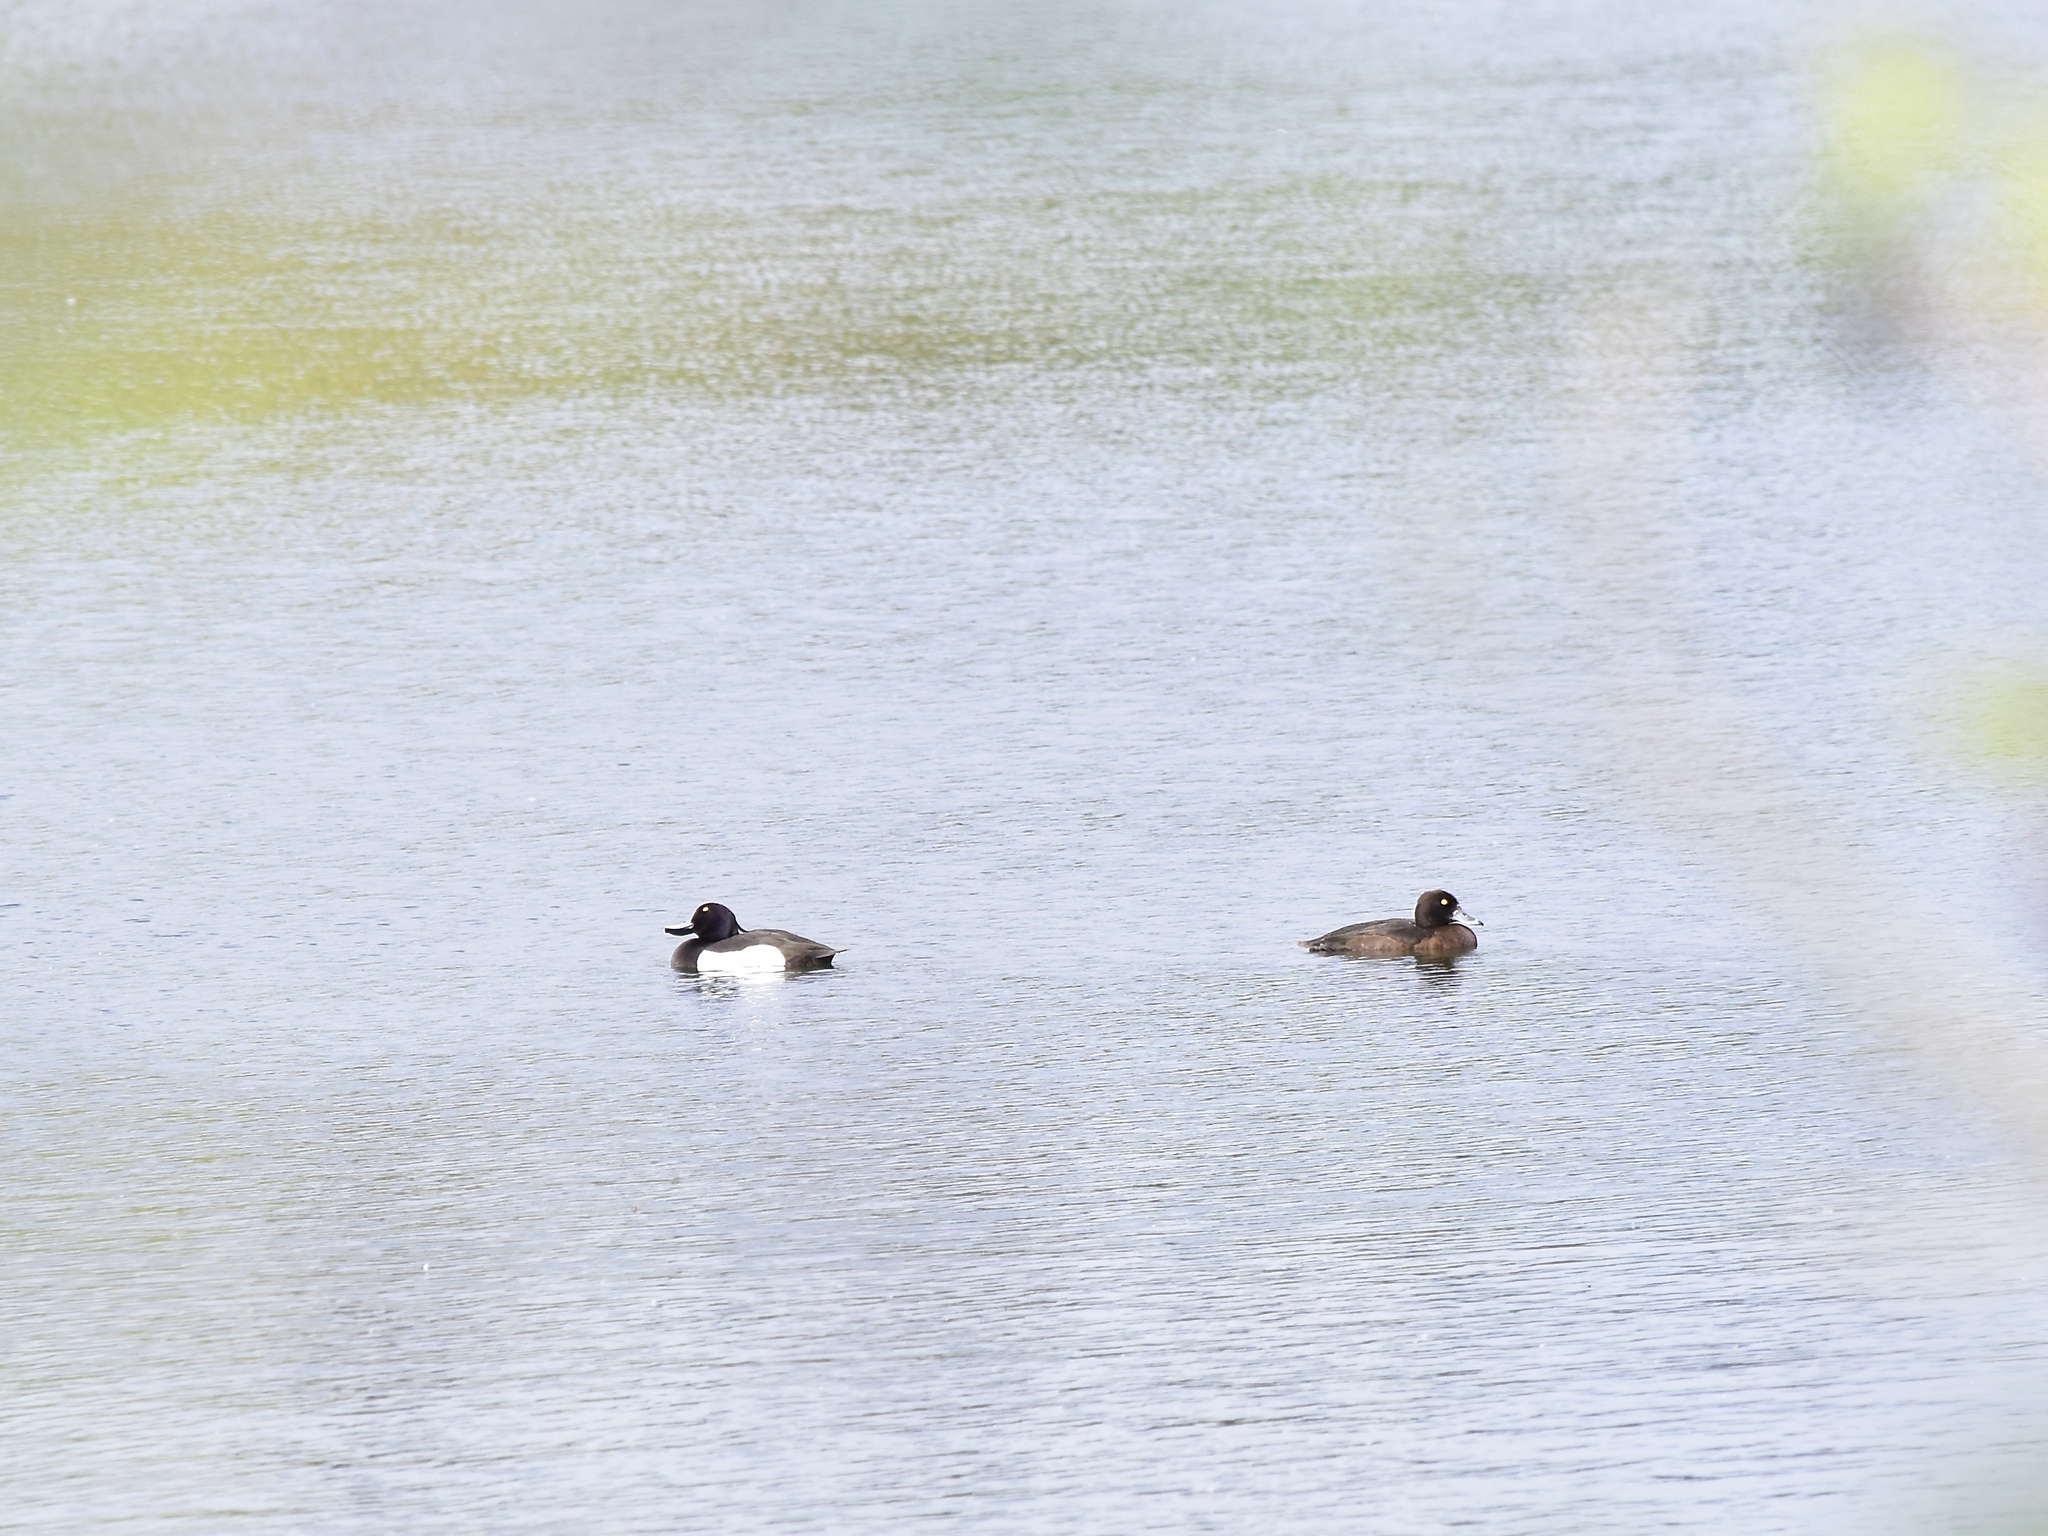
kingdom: Animalia
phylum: Chordata
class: Aves
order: Anseriformes
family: Anatidae
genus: Aythya
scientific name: Aythya fuligula
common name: Tufted duck
